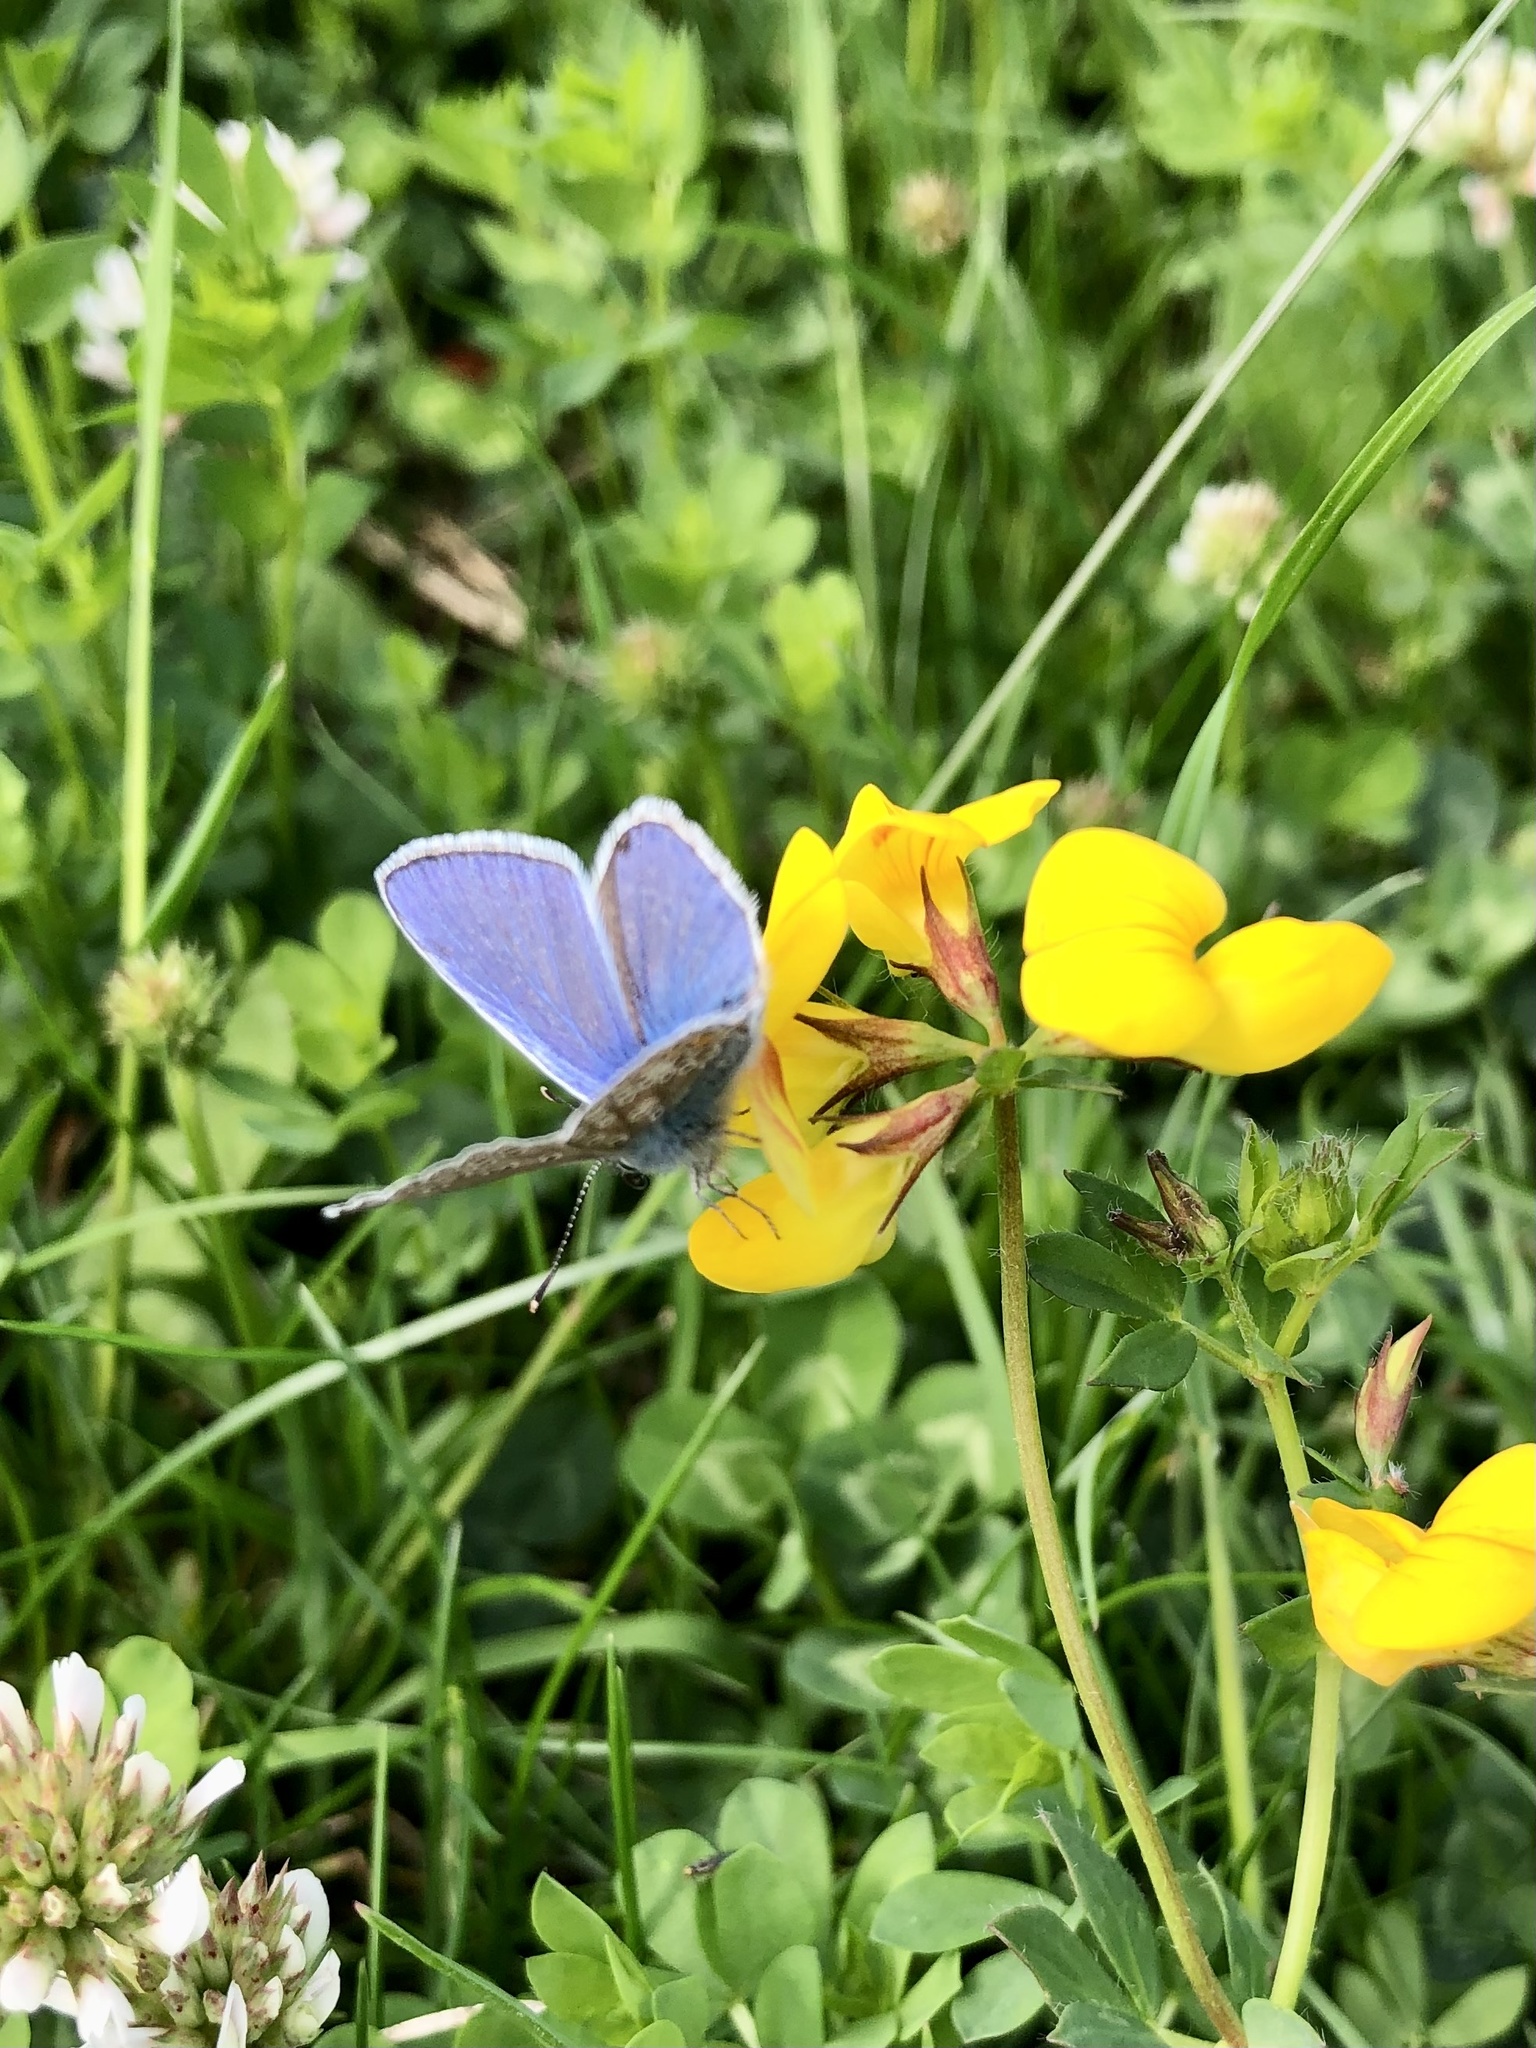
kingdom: Animalia
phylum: Arthropoda
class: Insecta
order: Lepidoptera
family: Lycaenidae
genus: Polyommatus
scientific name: Polyommatus icarus
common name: Common blue
